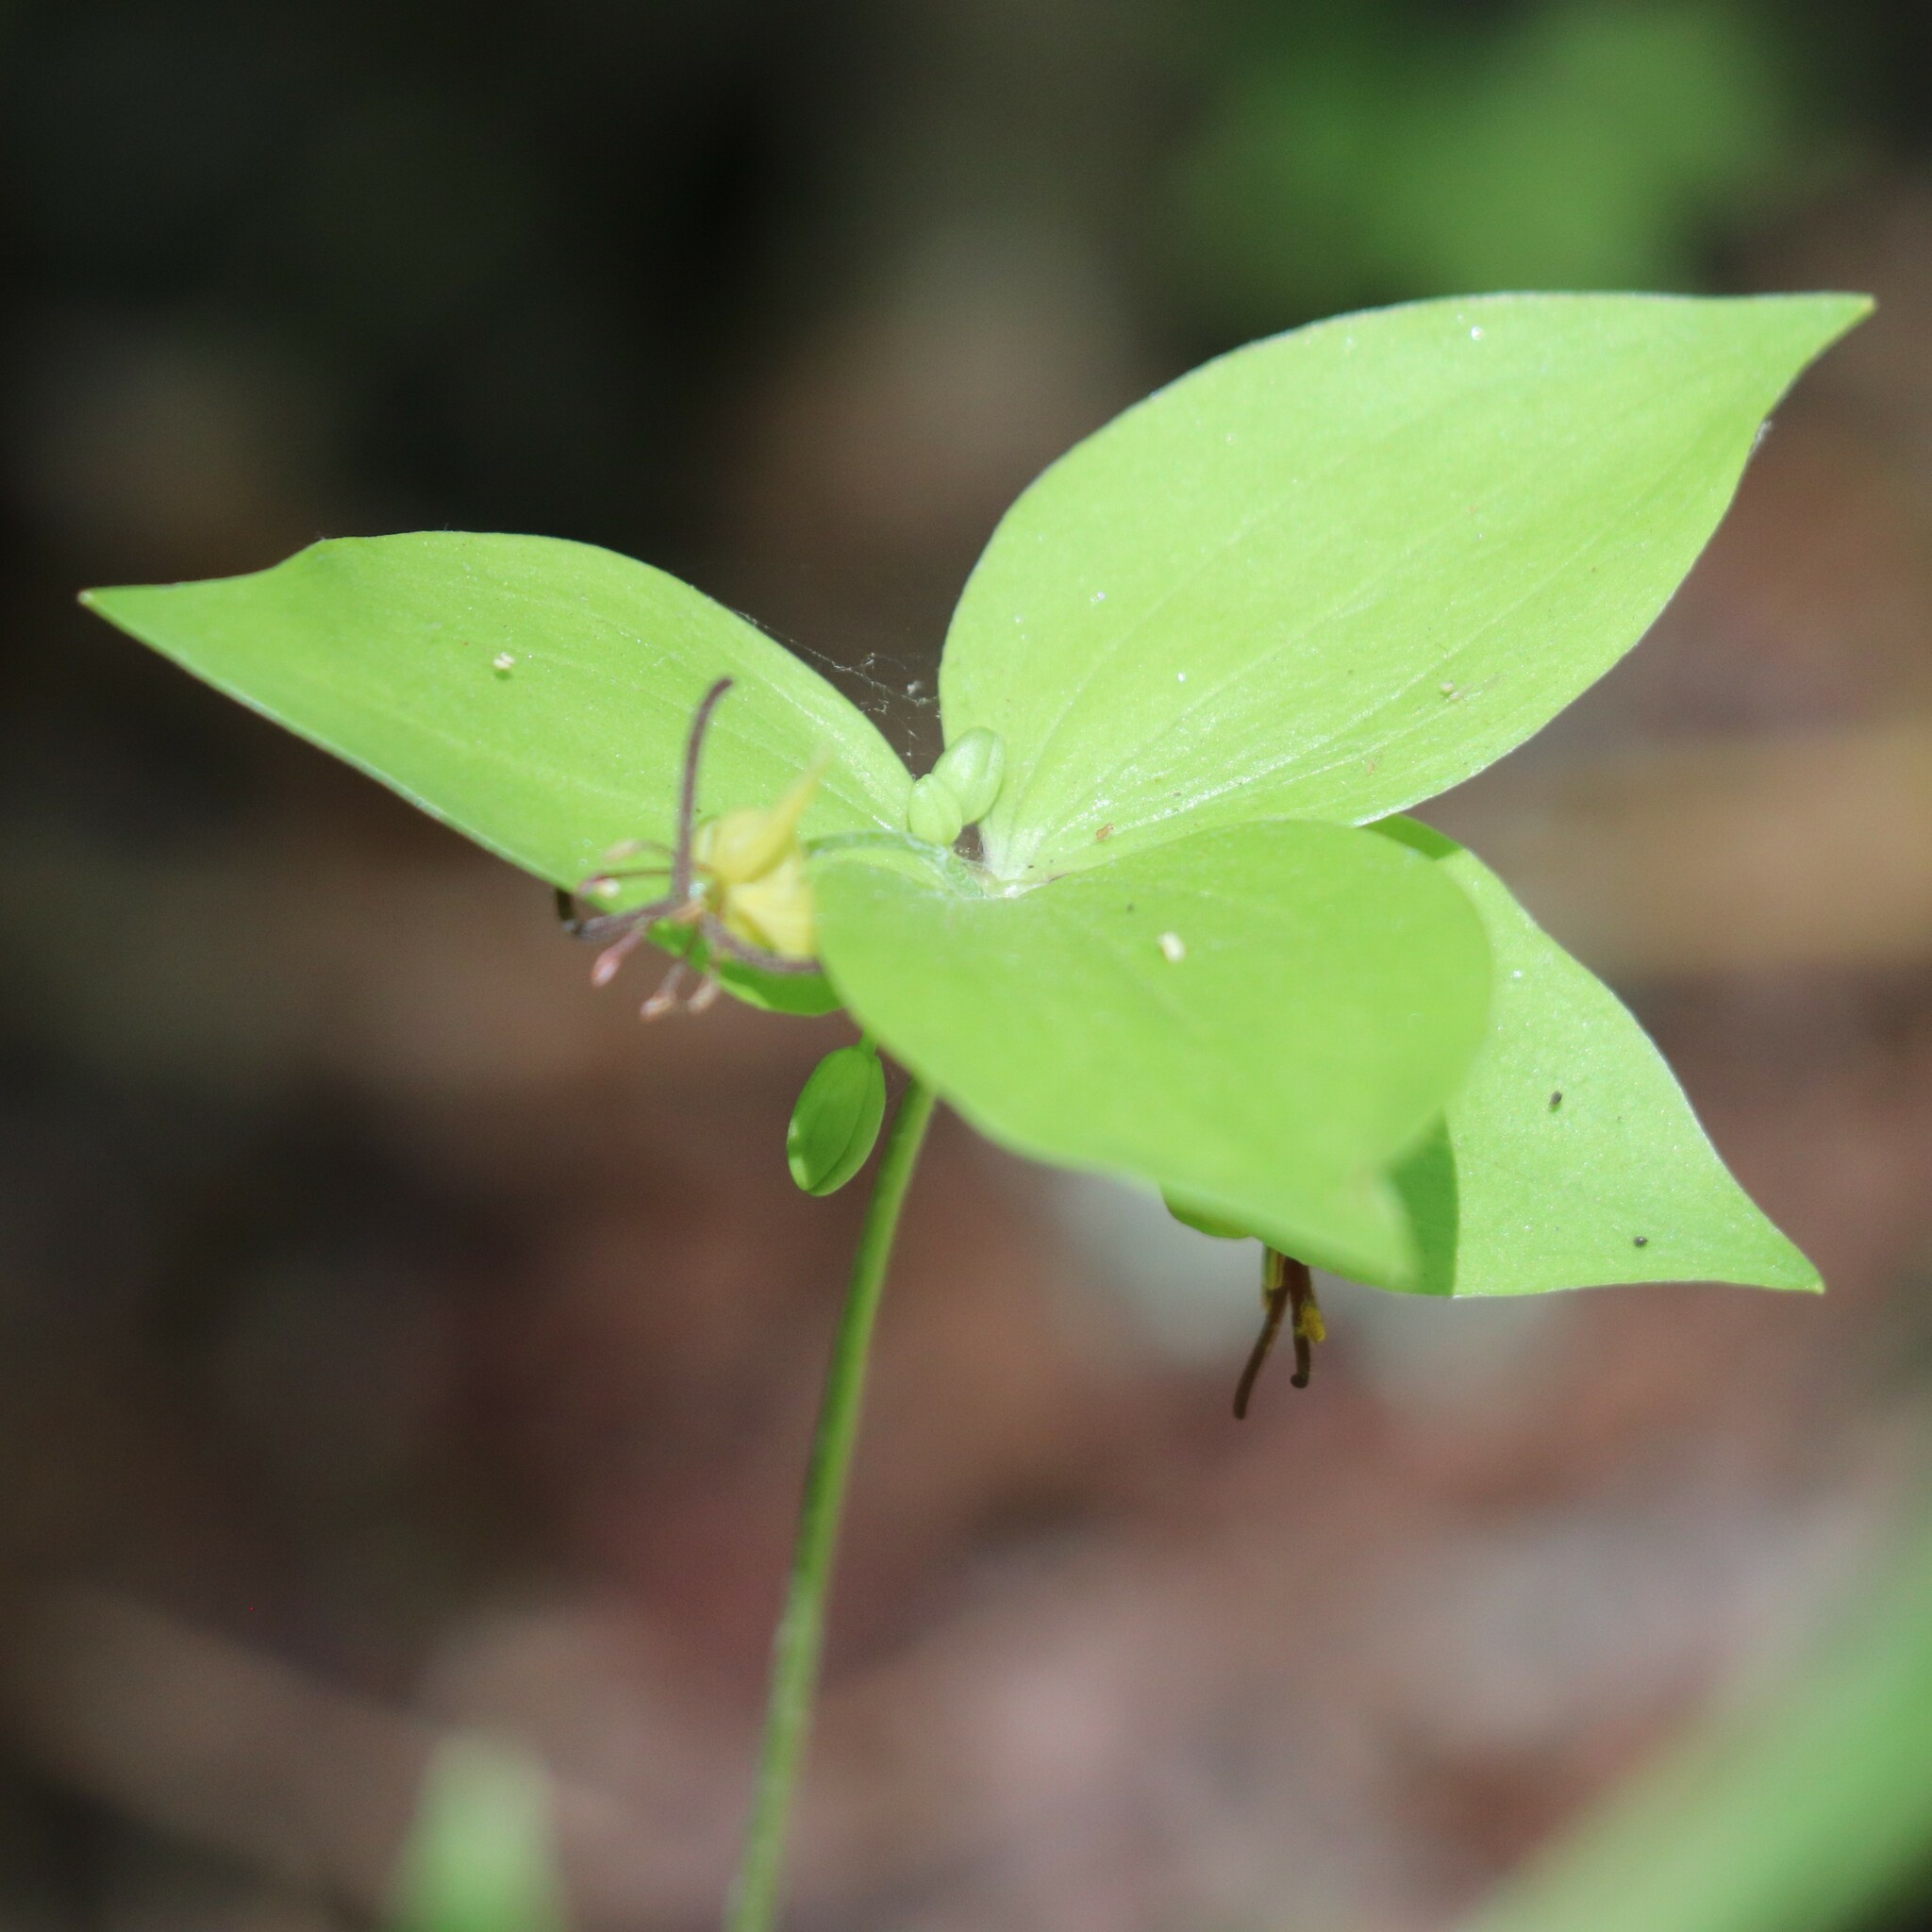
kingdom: Plantae
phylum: Tracheophyta
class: Liliopsida
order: Liliales
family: Liliaceae
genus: Medeola
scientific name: Medeola virginiana
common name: Indian cucumber-root
